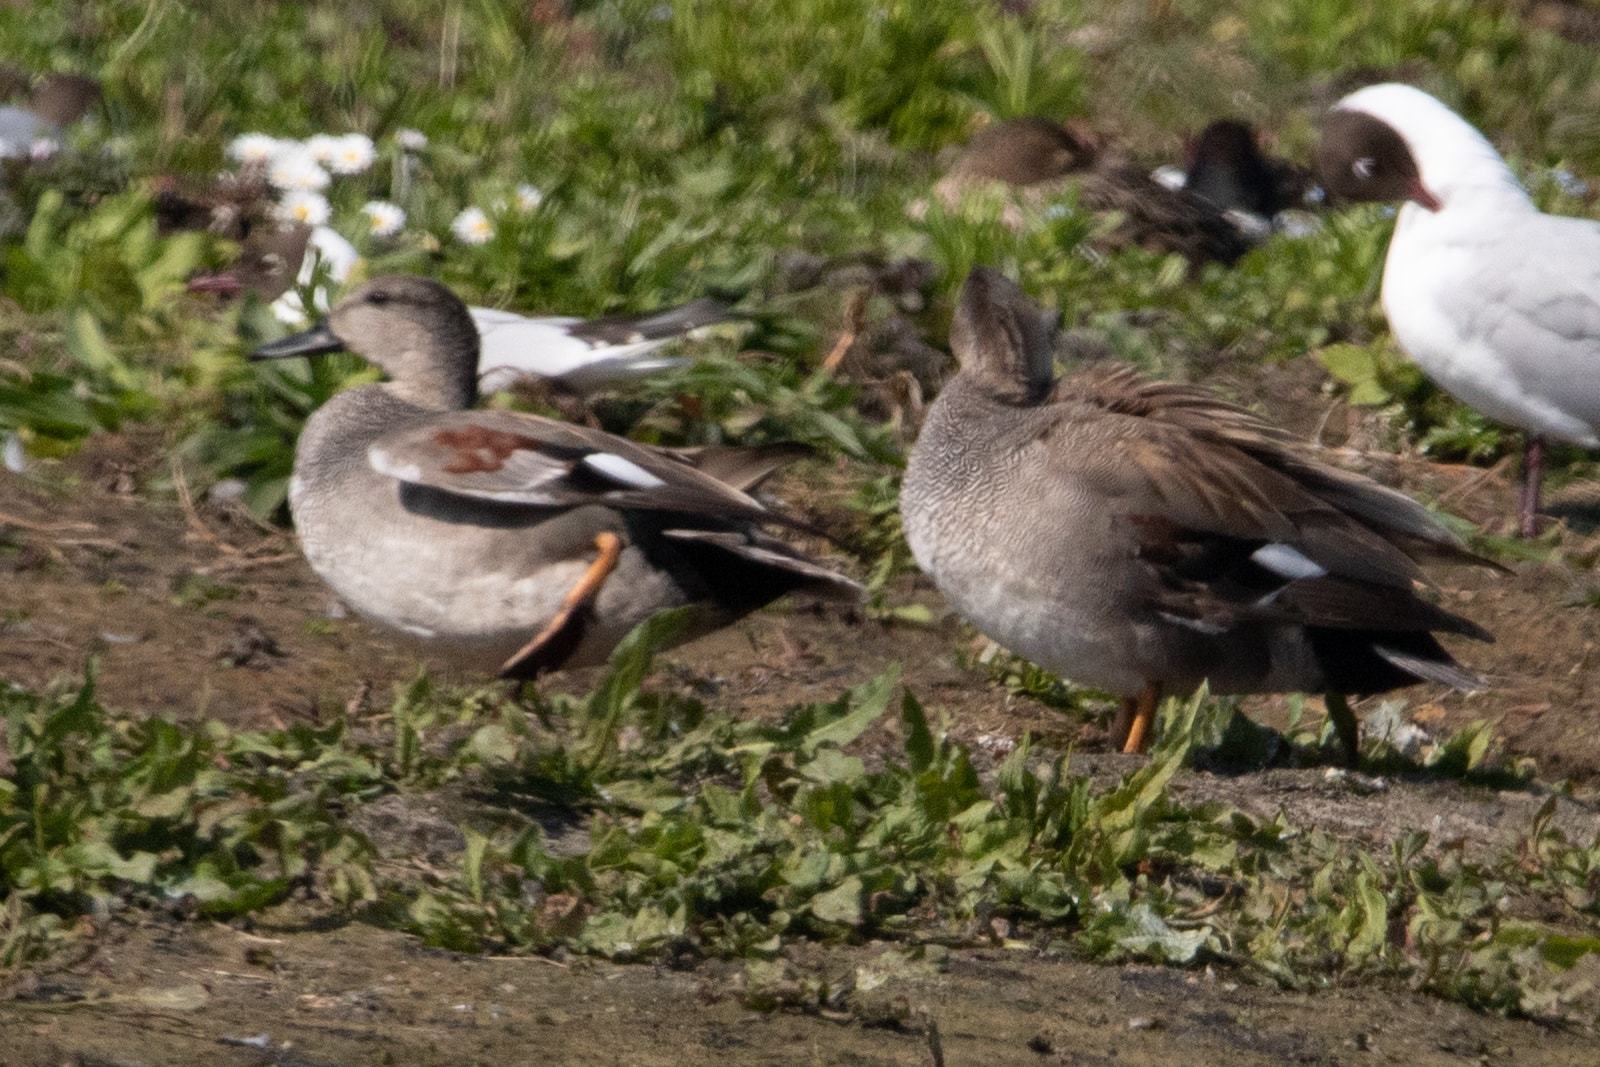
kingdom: Animalia
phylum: Chordata
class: Aves
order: Anseriformes
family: Anatidae
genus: Mareca
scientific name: Mareca strepera
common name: Gadwall
